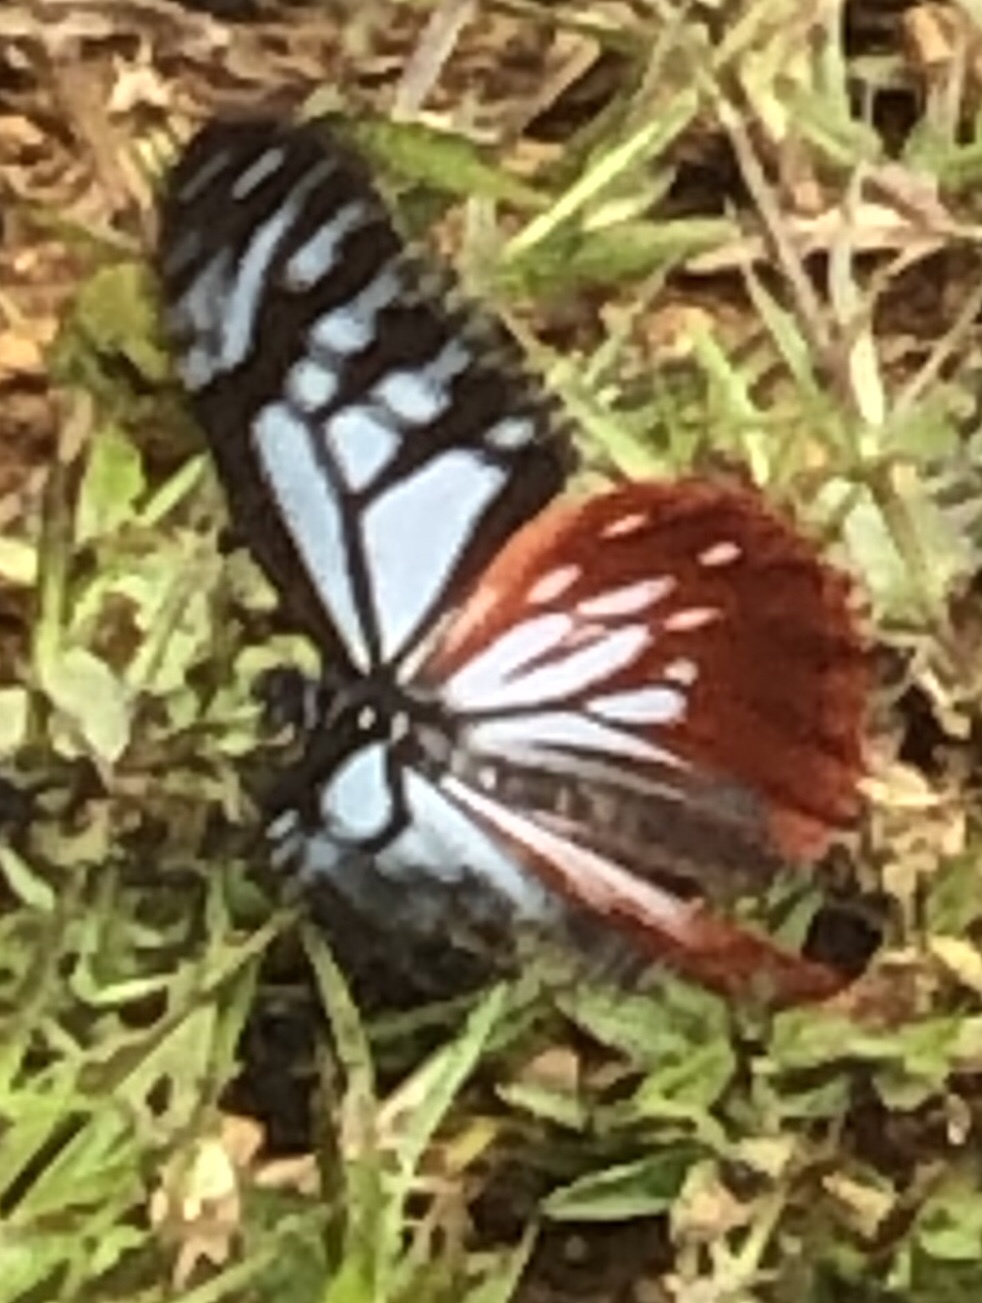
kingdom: Animalia
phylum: Arthropoda
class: Insecta
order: Lepidoptera
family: Nymphalidae
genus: Parantica
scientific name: Parantica sita
